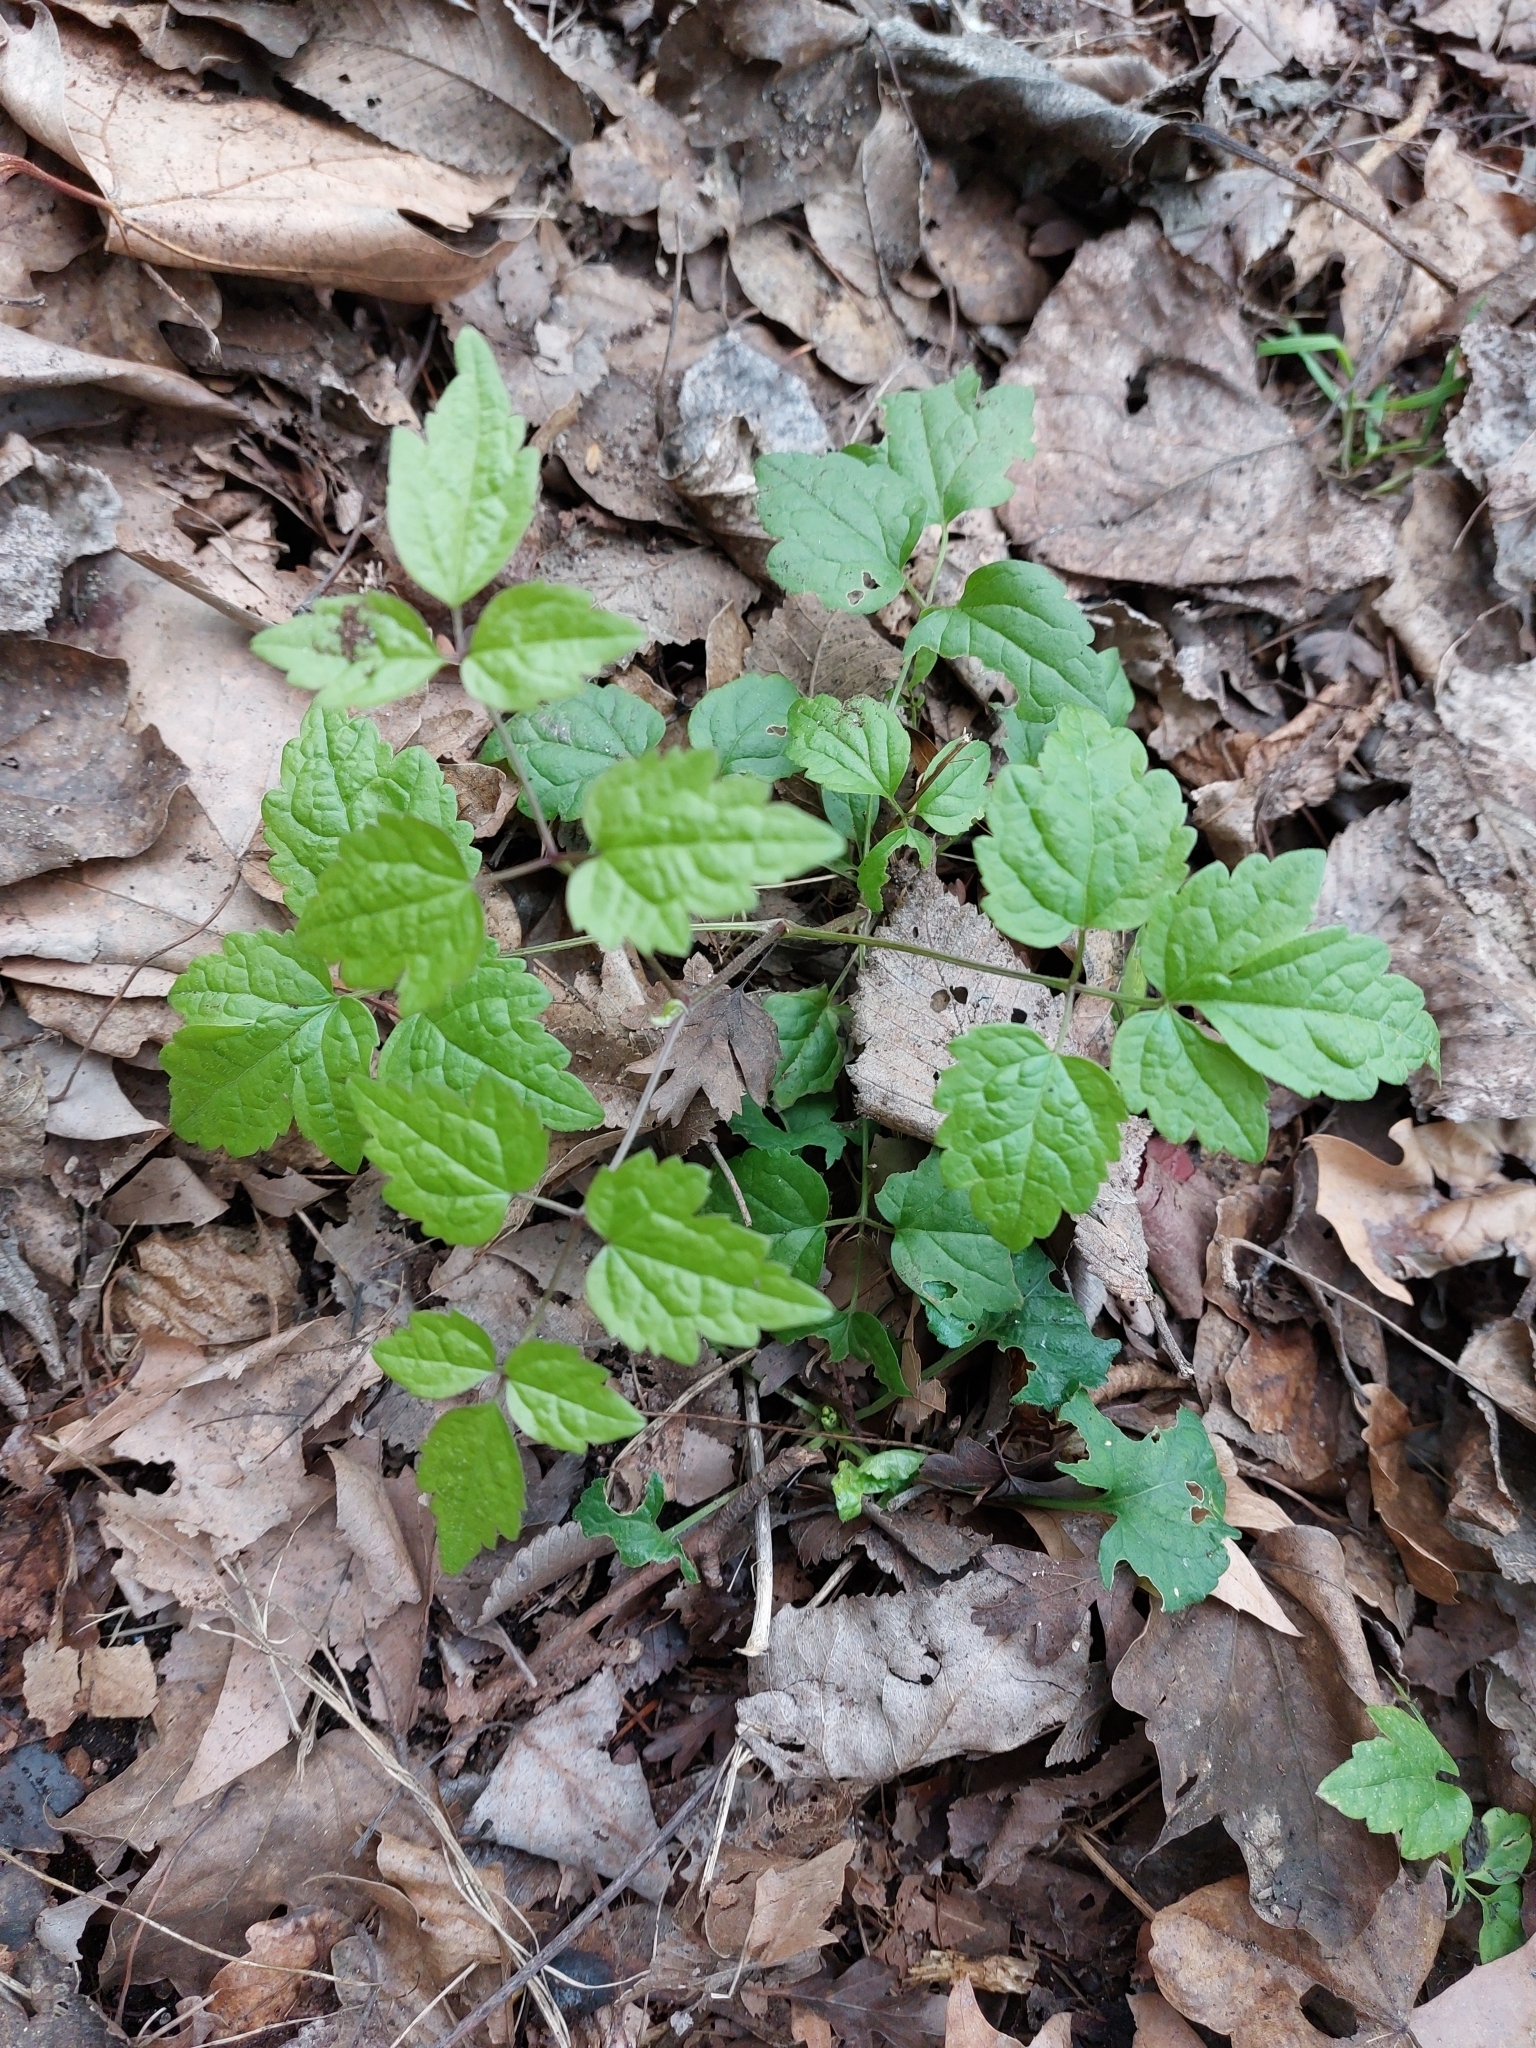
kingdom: Plantae
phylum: Tracheophyta
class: Magnoliopsida
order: Ranunculales
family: Ranunculaceae
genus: Clematis
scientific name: Clematis vitalba
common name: Evergreen clematis
